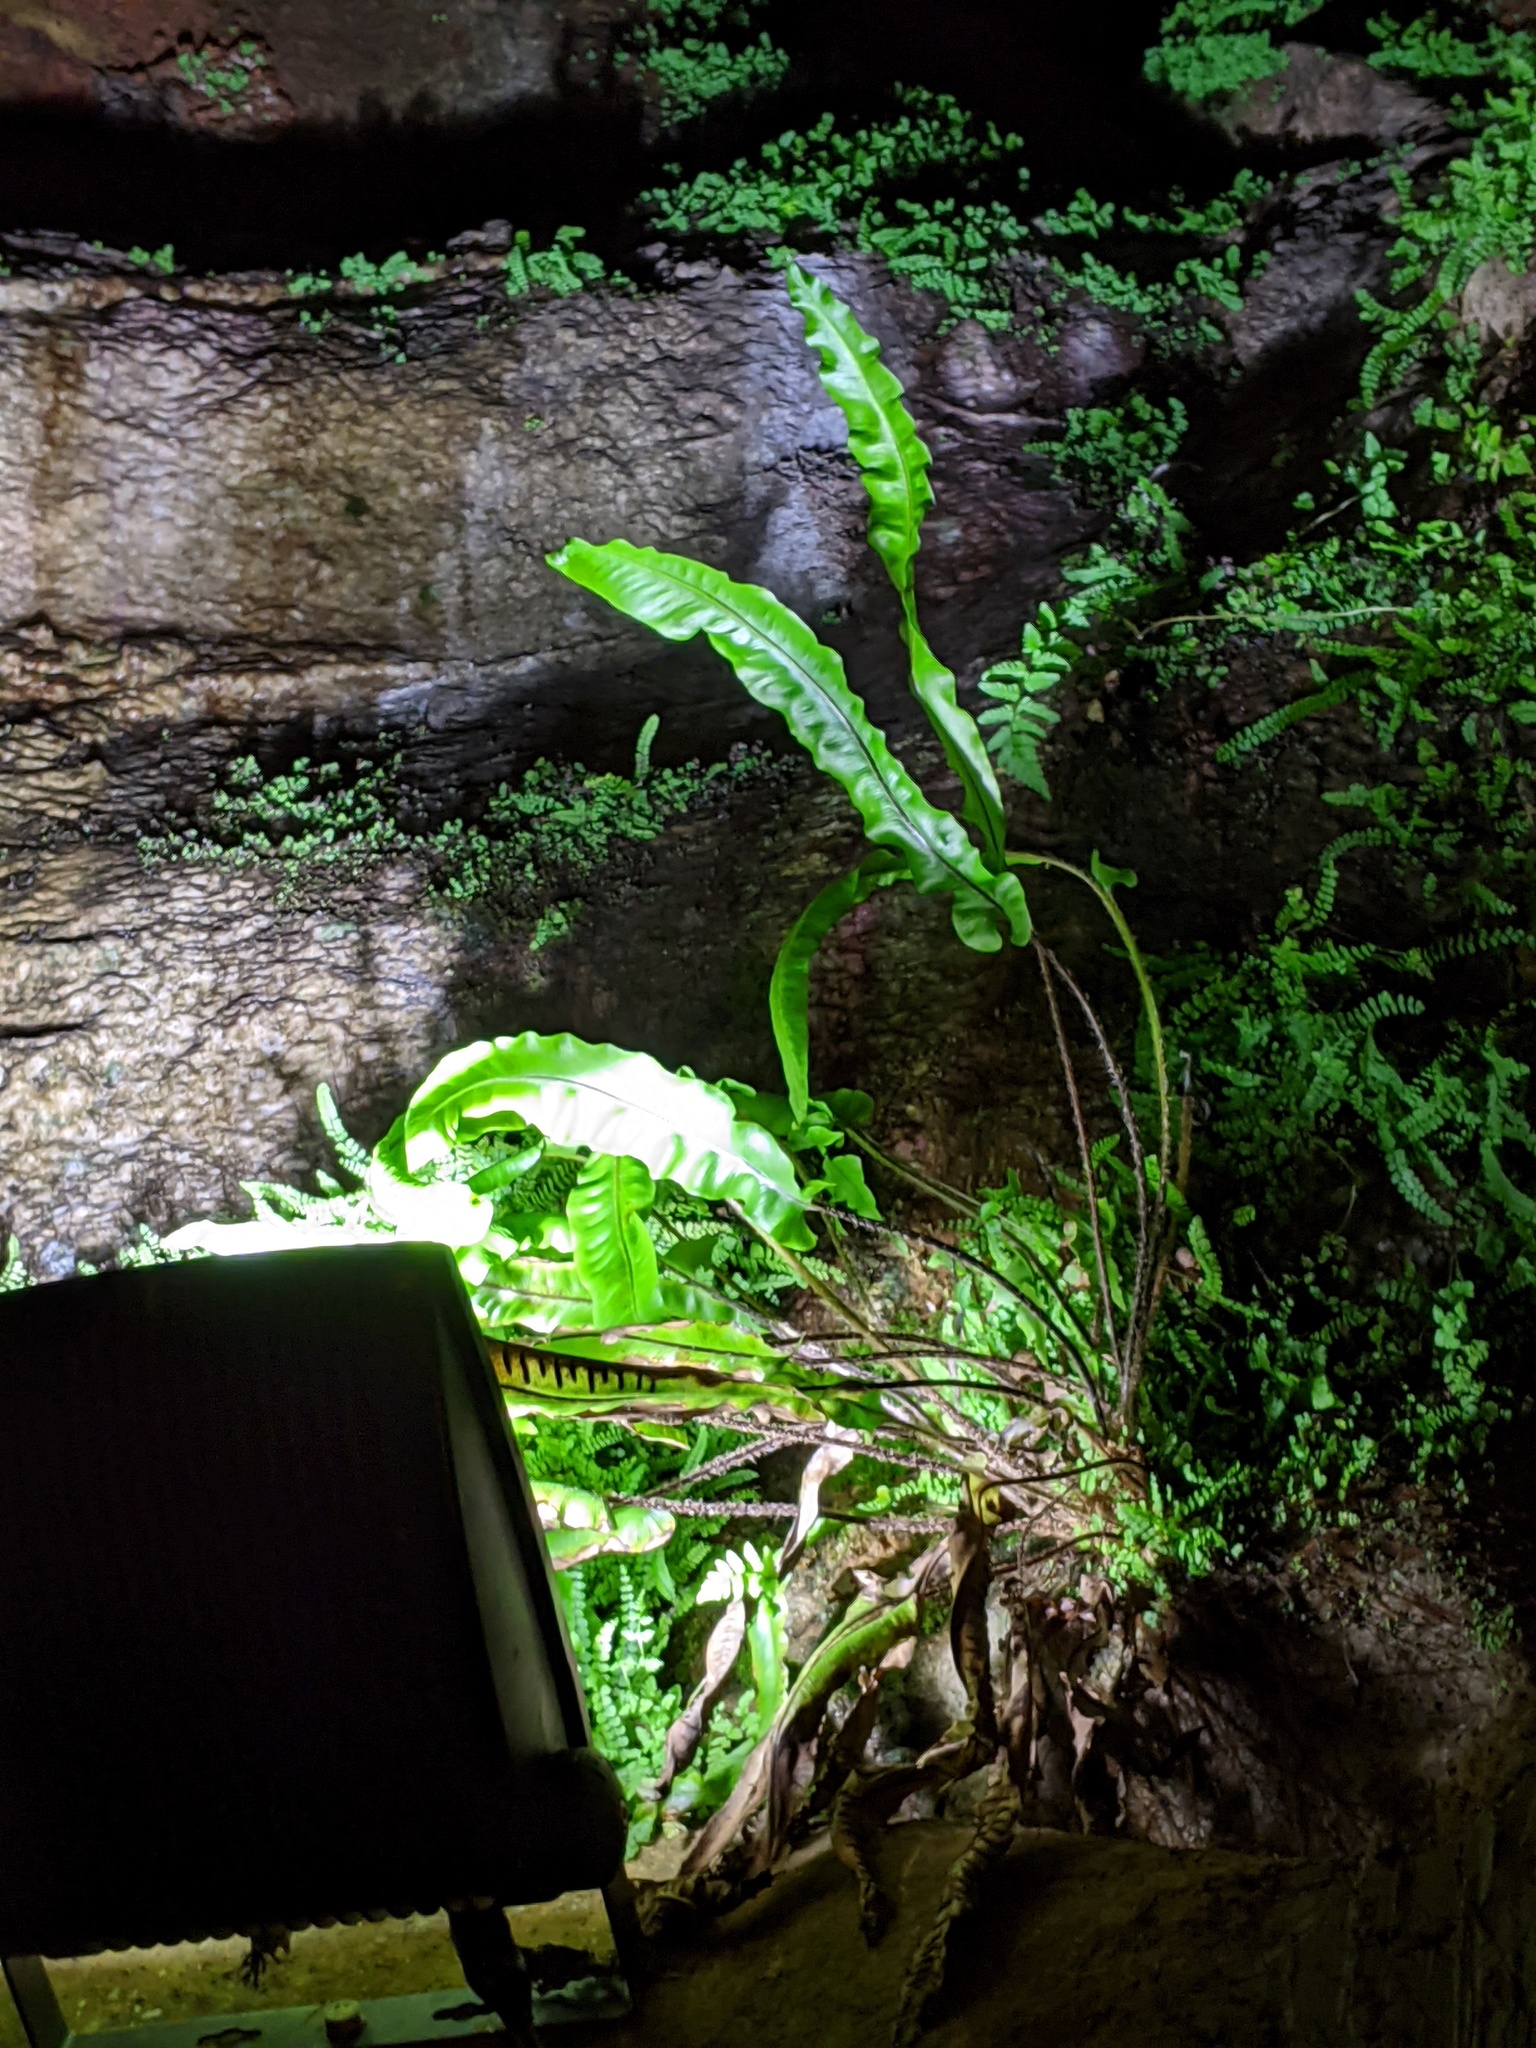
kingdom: Plantae
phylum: Tracheophyta
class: Polypodiopsida
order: Polypodiales
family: Aspleniaceae
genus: Asplenium
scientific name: Asplenium scolopendrium
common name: Hart's-tongue fern
